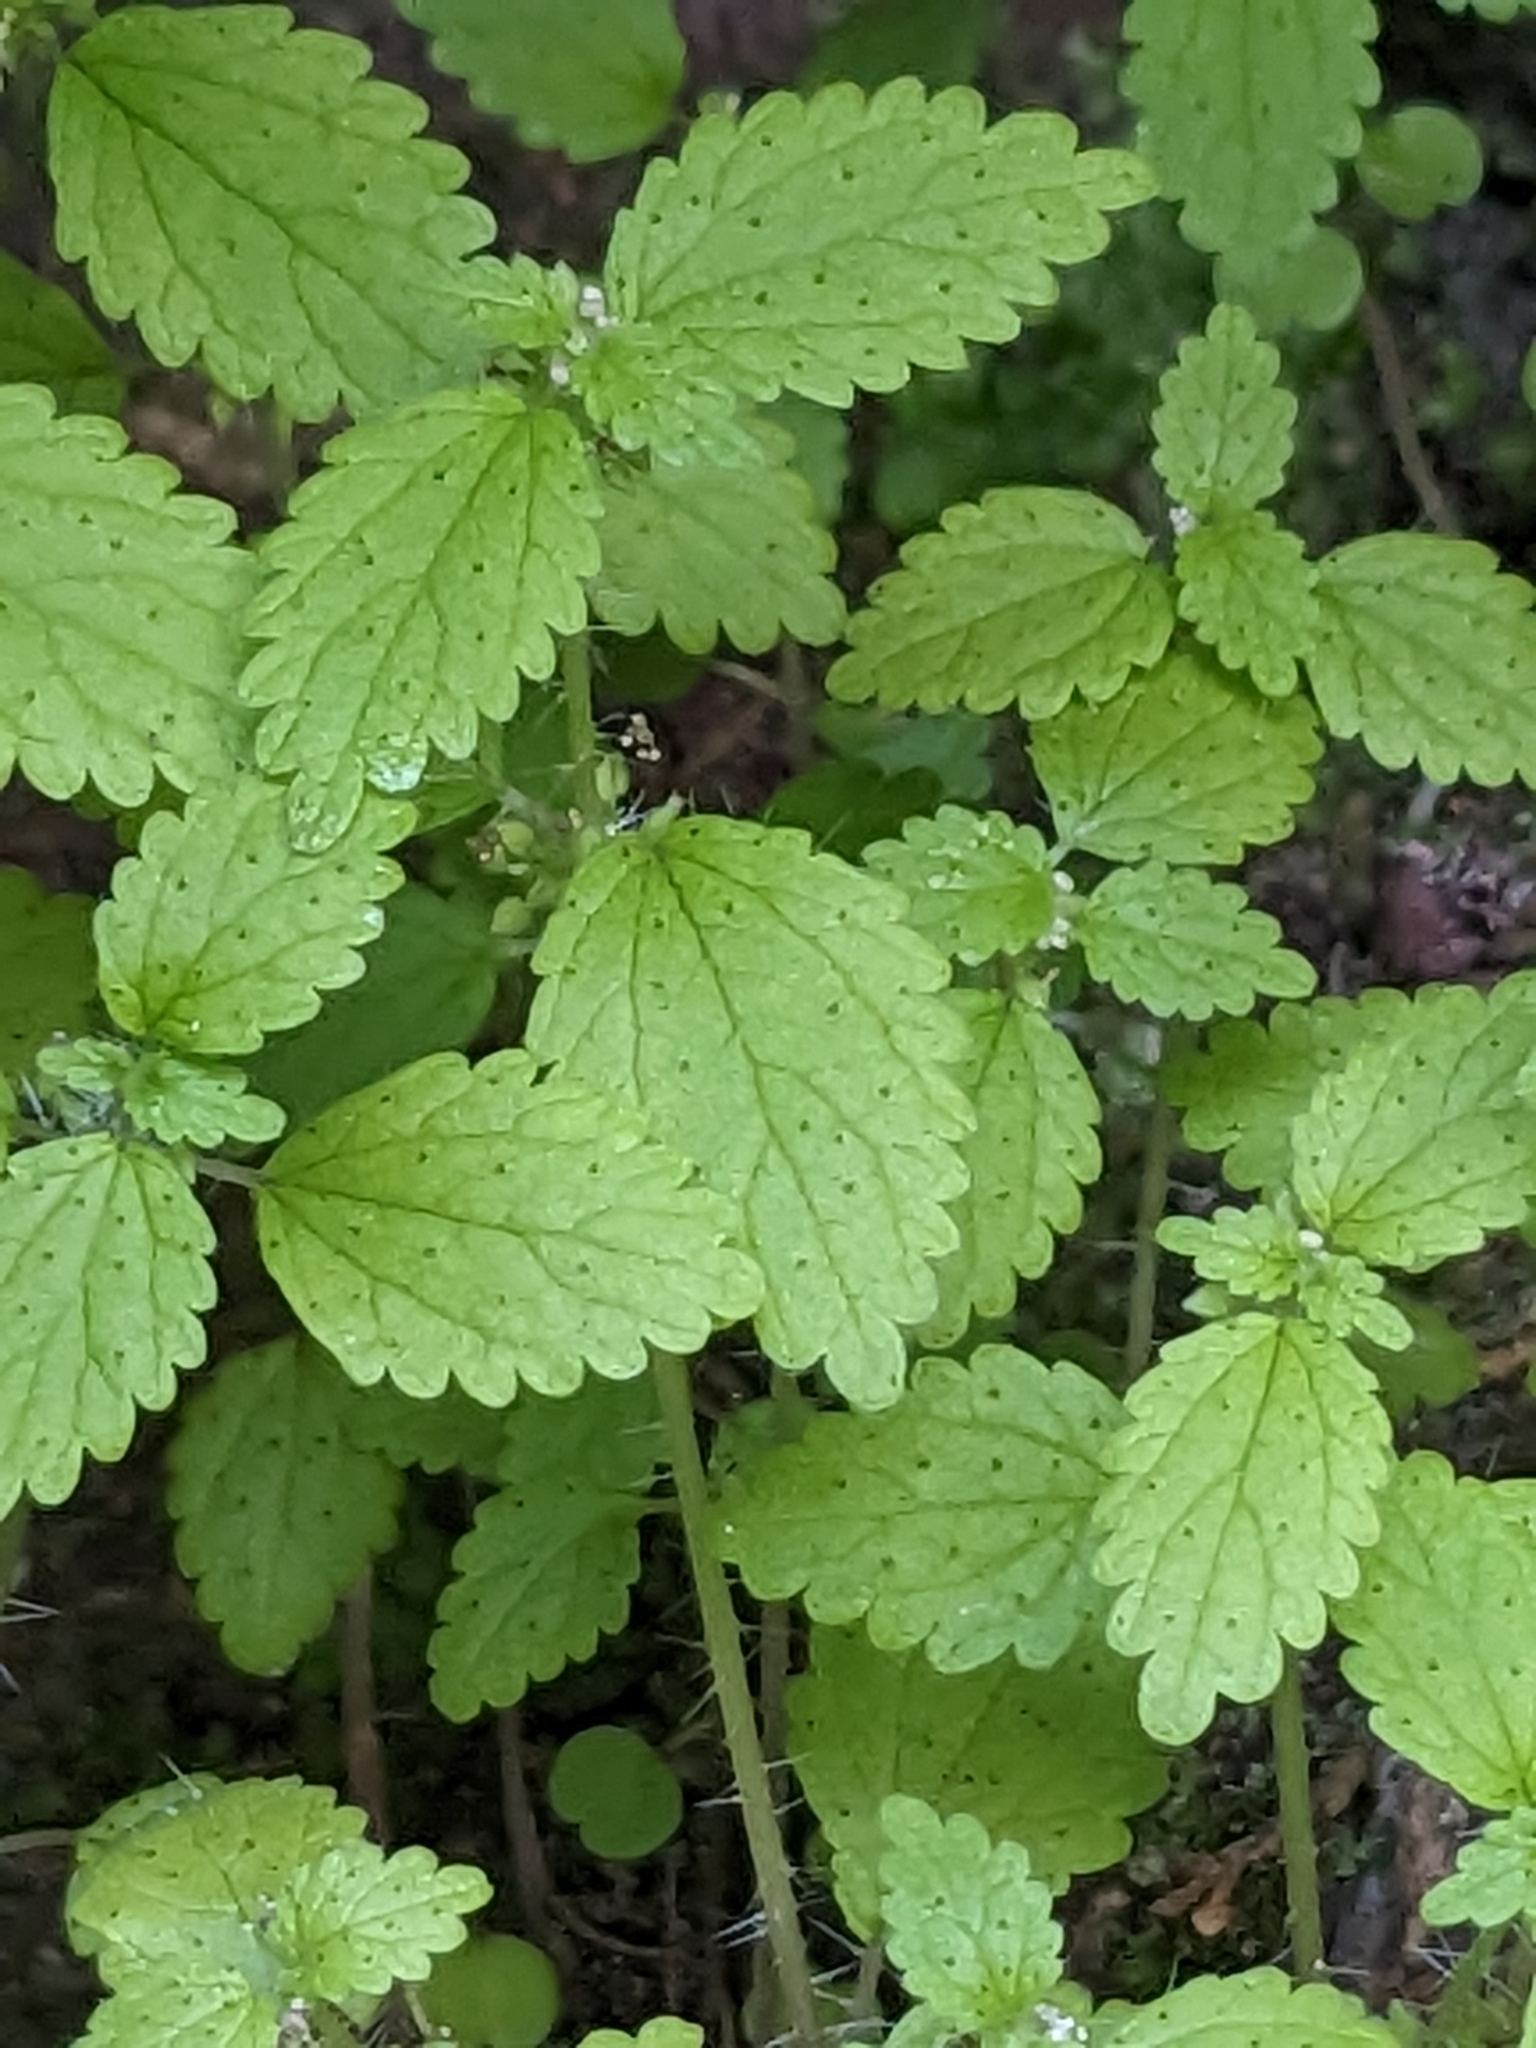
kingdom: Plantae
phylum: Tracheophyta
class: Magnoliopsida
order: Rosales
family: Urticaceae
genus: Hesperocnide
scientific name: Hesperocnide tenella
